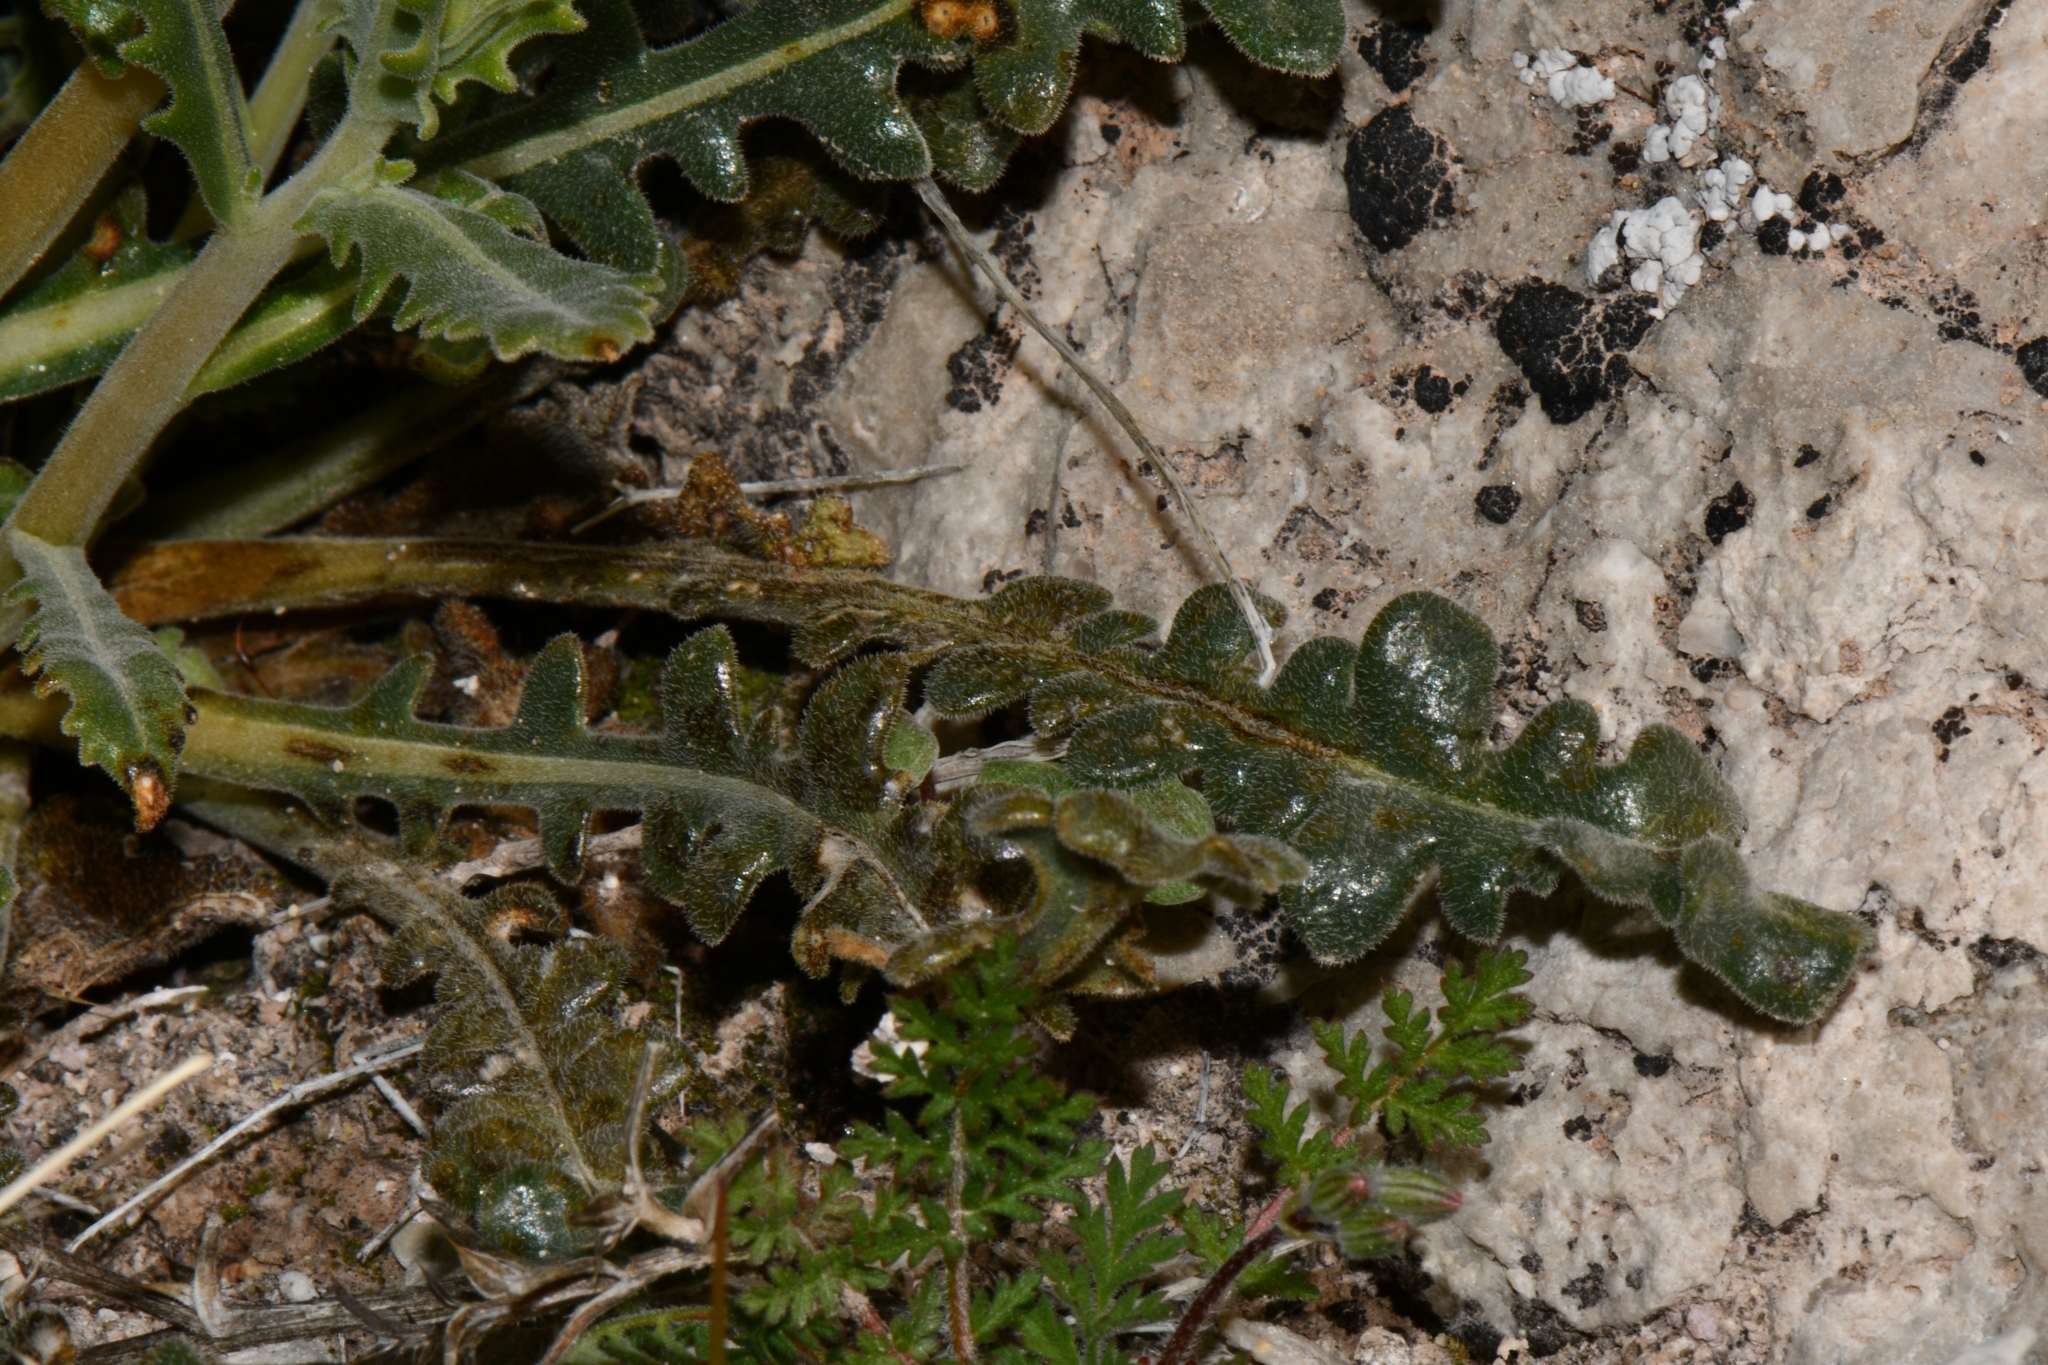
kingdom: Plantae
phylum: Tracheophyta
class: Magnoliopsida
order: Cornales
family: Loasaceae
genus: Mentzelia
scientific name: Mentzelia oreophila
